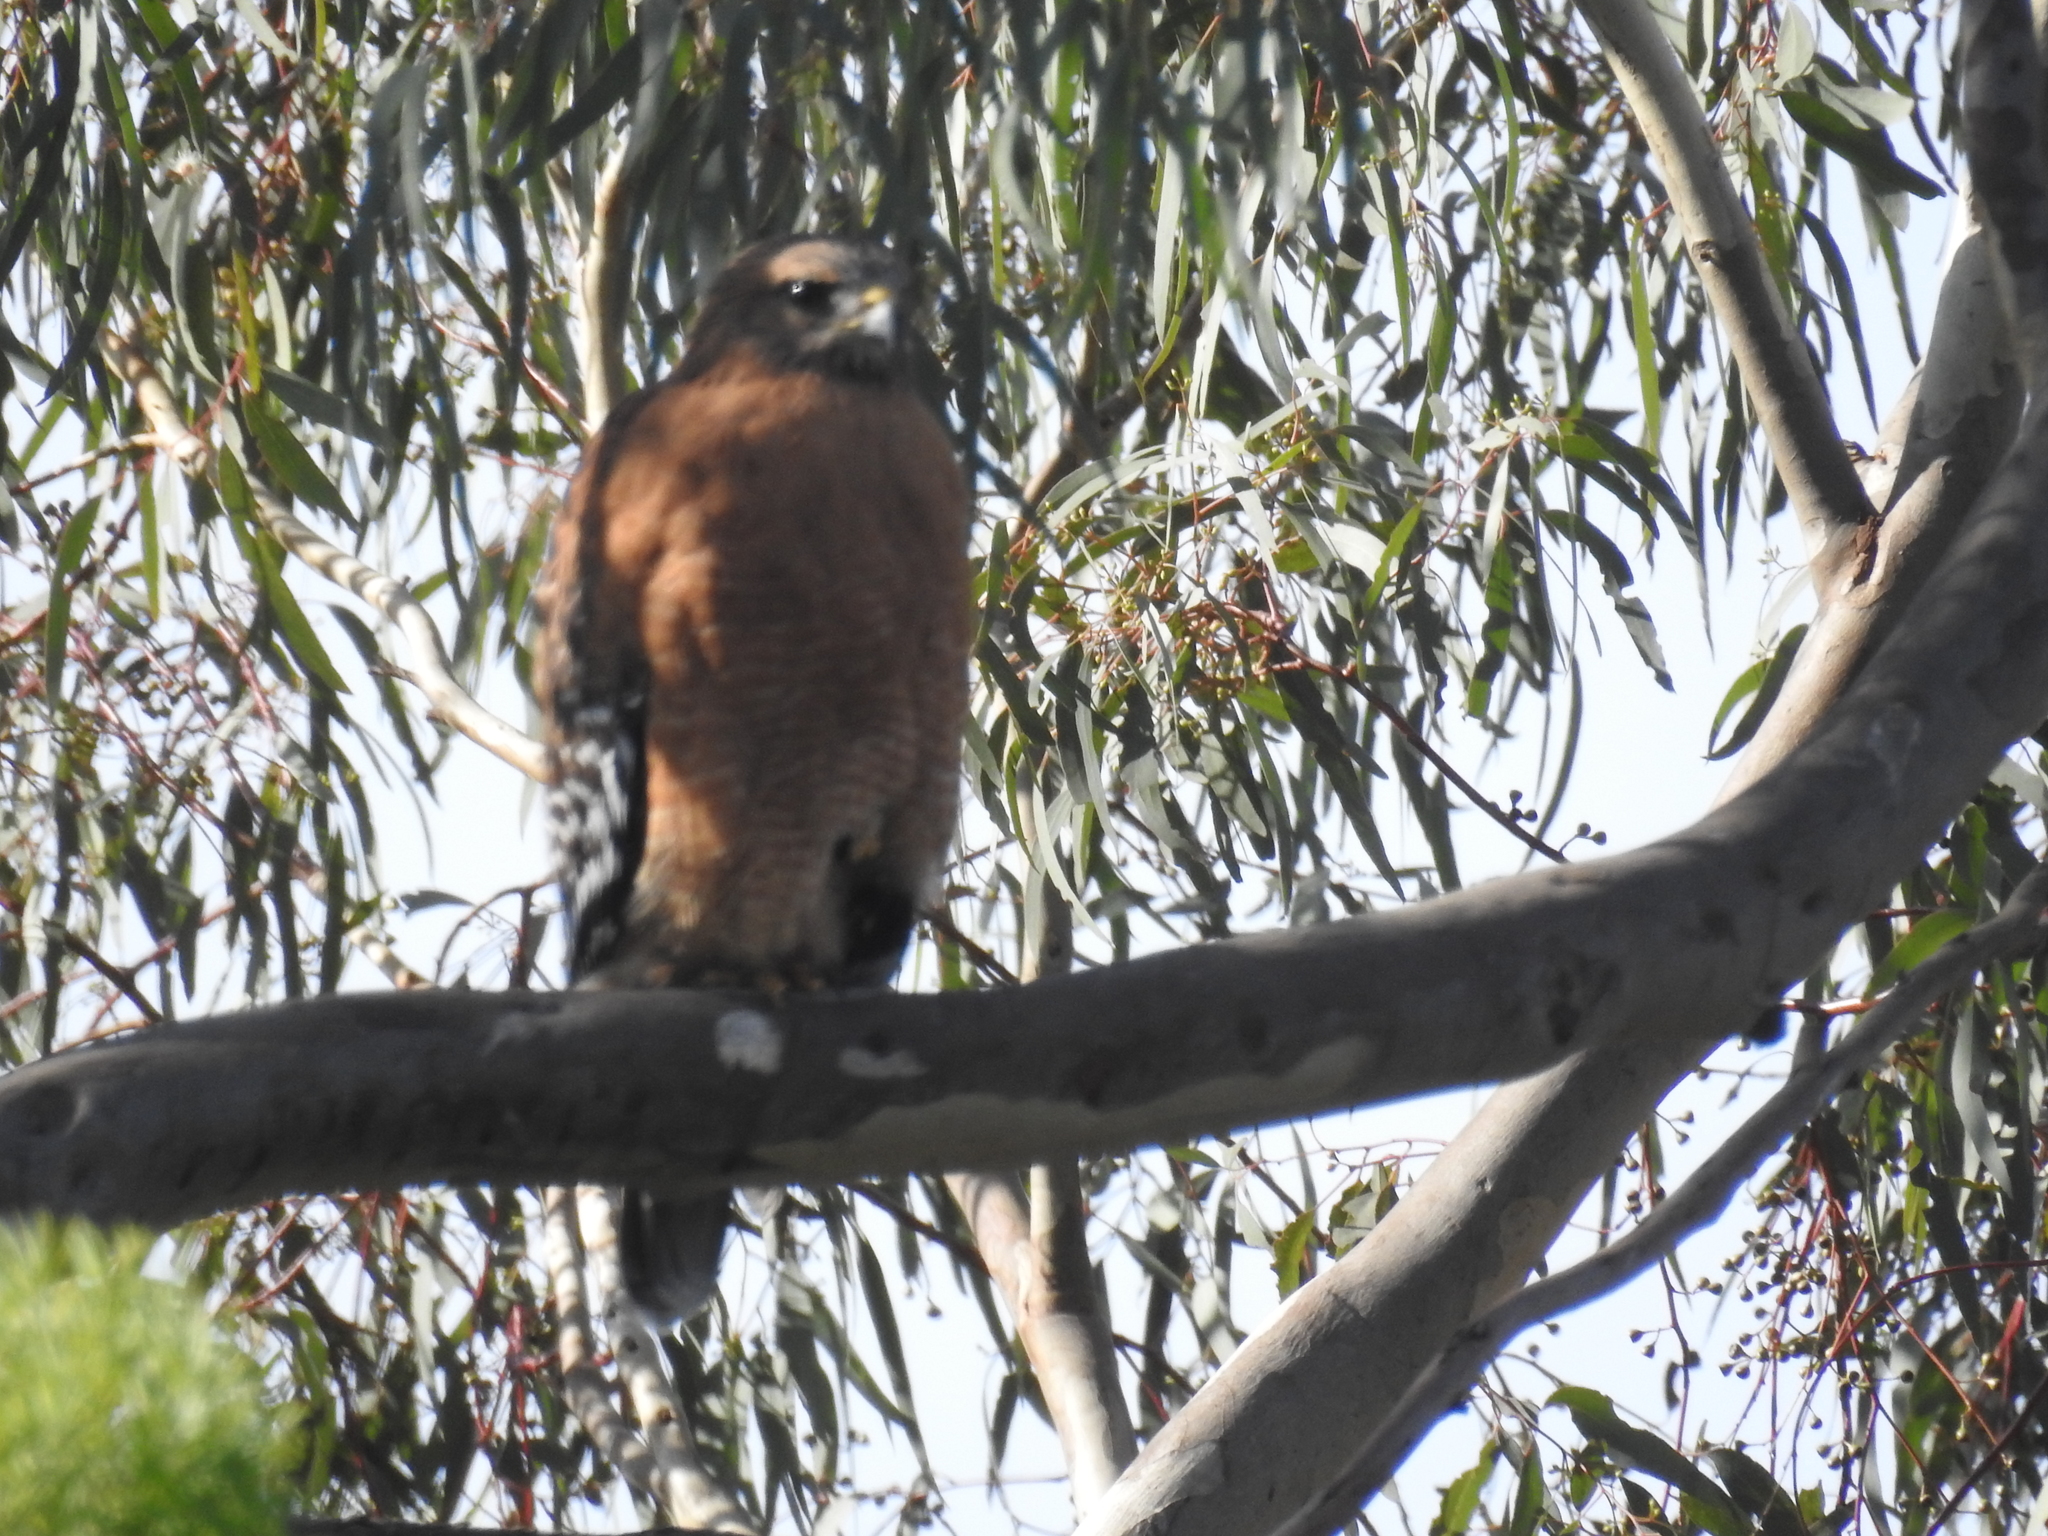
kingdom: Animalia
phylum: Chordata
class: Aves
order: Accipitriformes
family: Accipitridae
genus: Buteo
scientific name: Buteo lineatus
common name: Red-shouldered hawk
